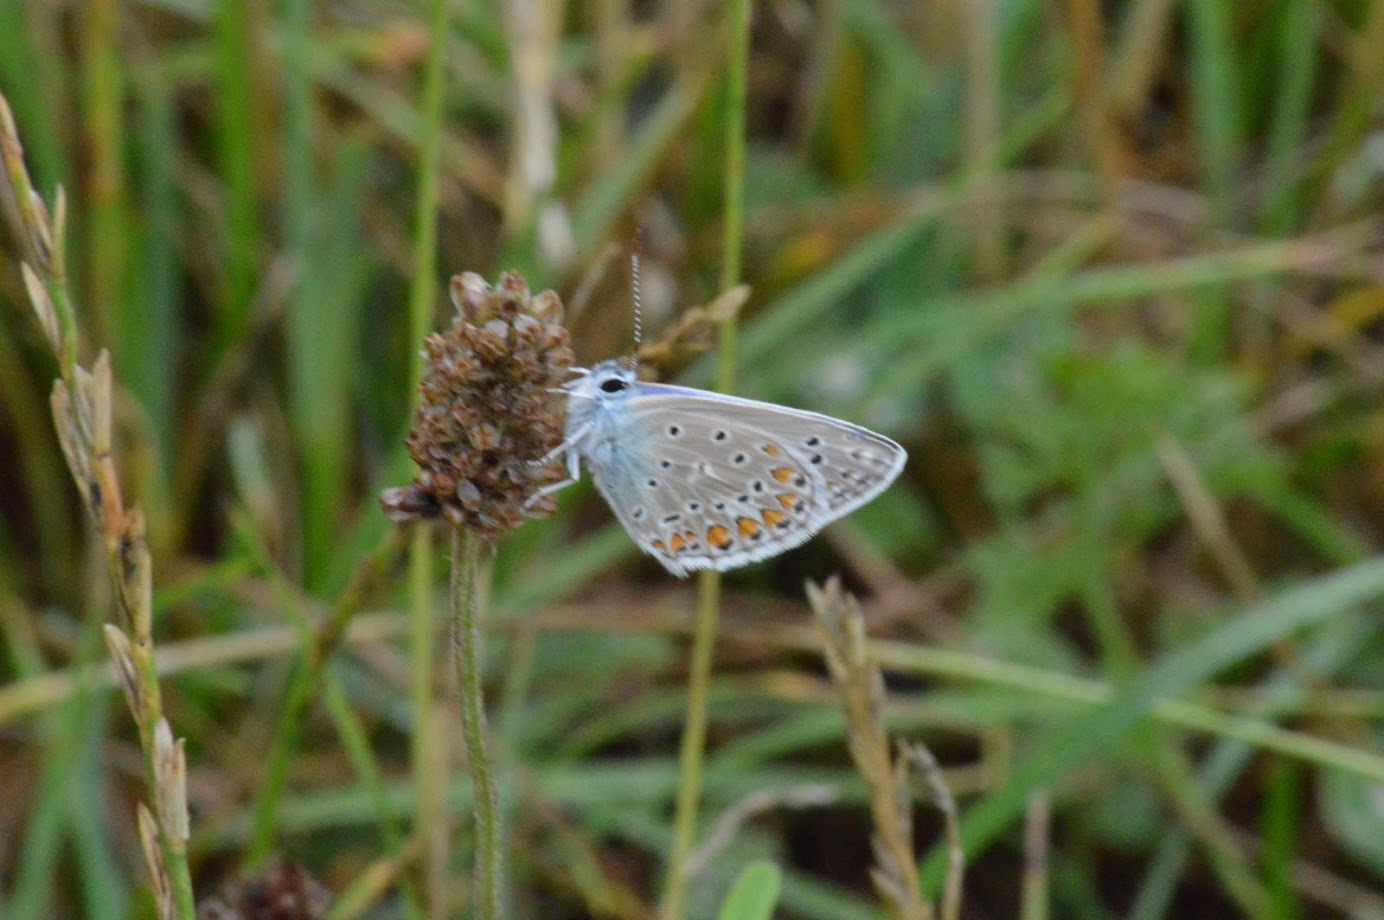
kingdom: Animalia
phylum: Arthropoda
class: Insecta
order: Lepidoptera
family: Lycaenidae
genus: Polyommatus
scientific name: Polyommatus icarus
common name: Common blue
